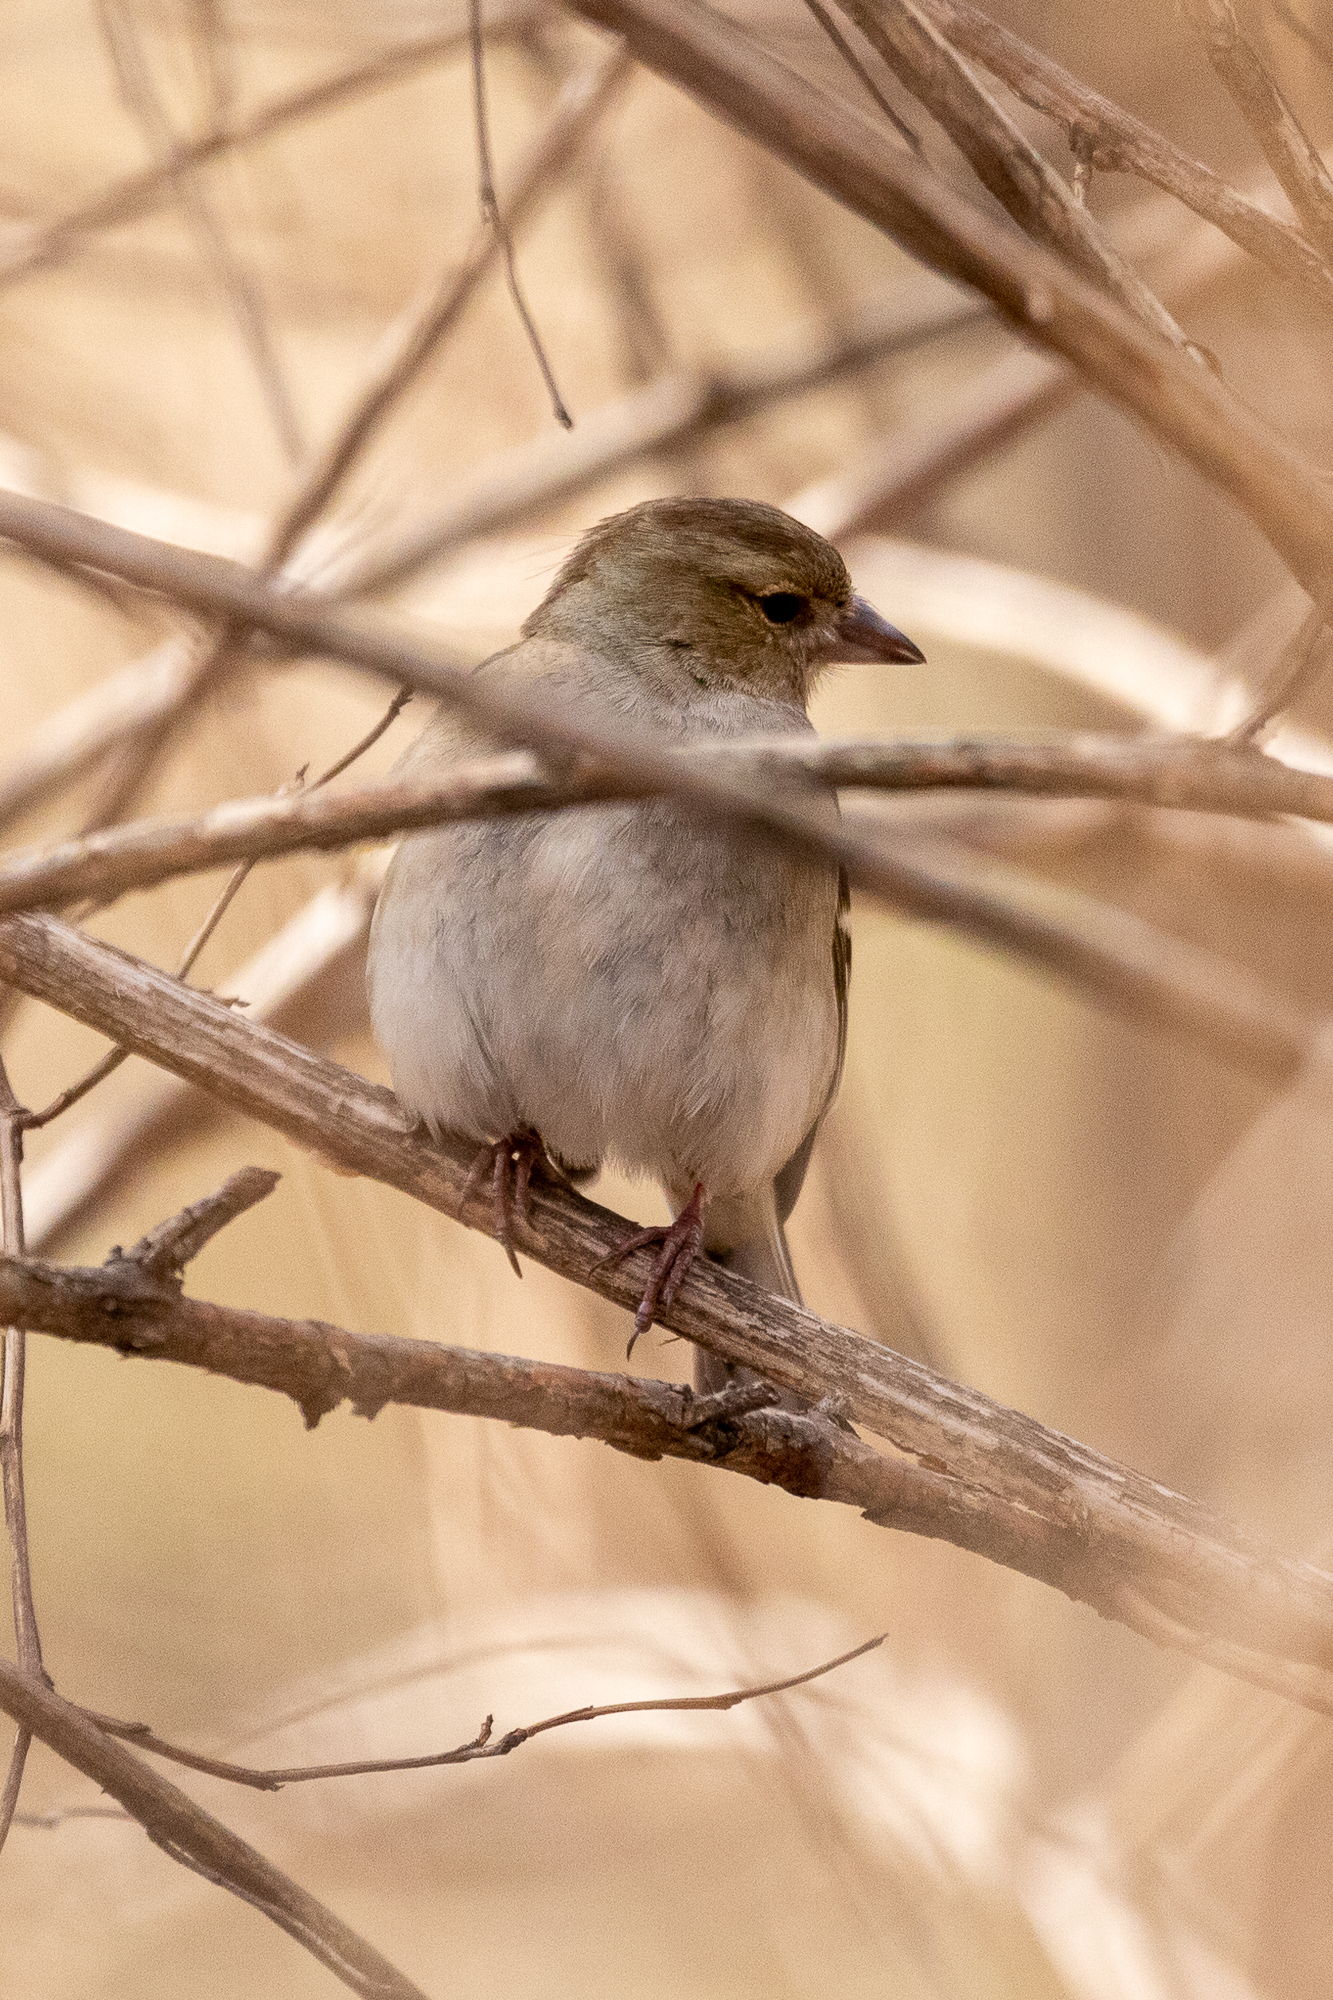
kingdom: Animalia
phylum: Chordata
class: Aves
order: Passeriformes
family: Fringillidae
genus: Fringilla
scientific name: Fringilla coelebs
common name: Common chaffinch
